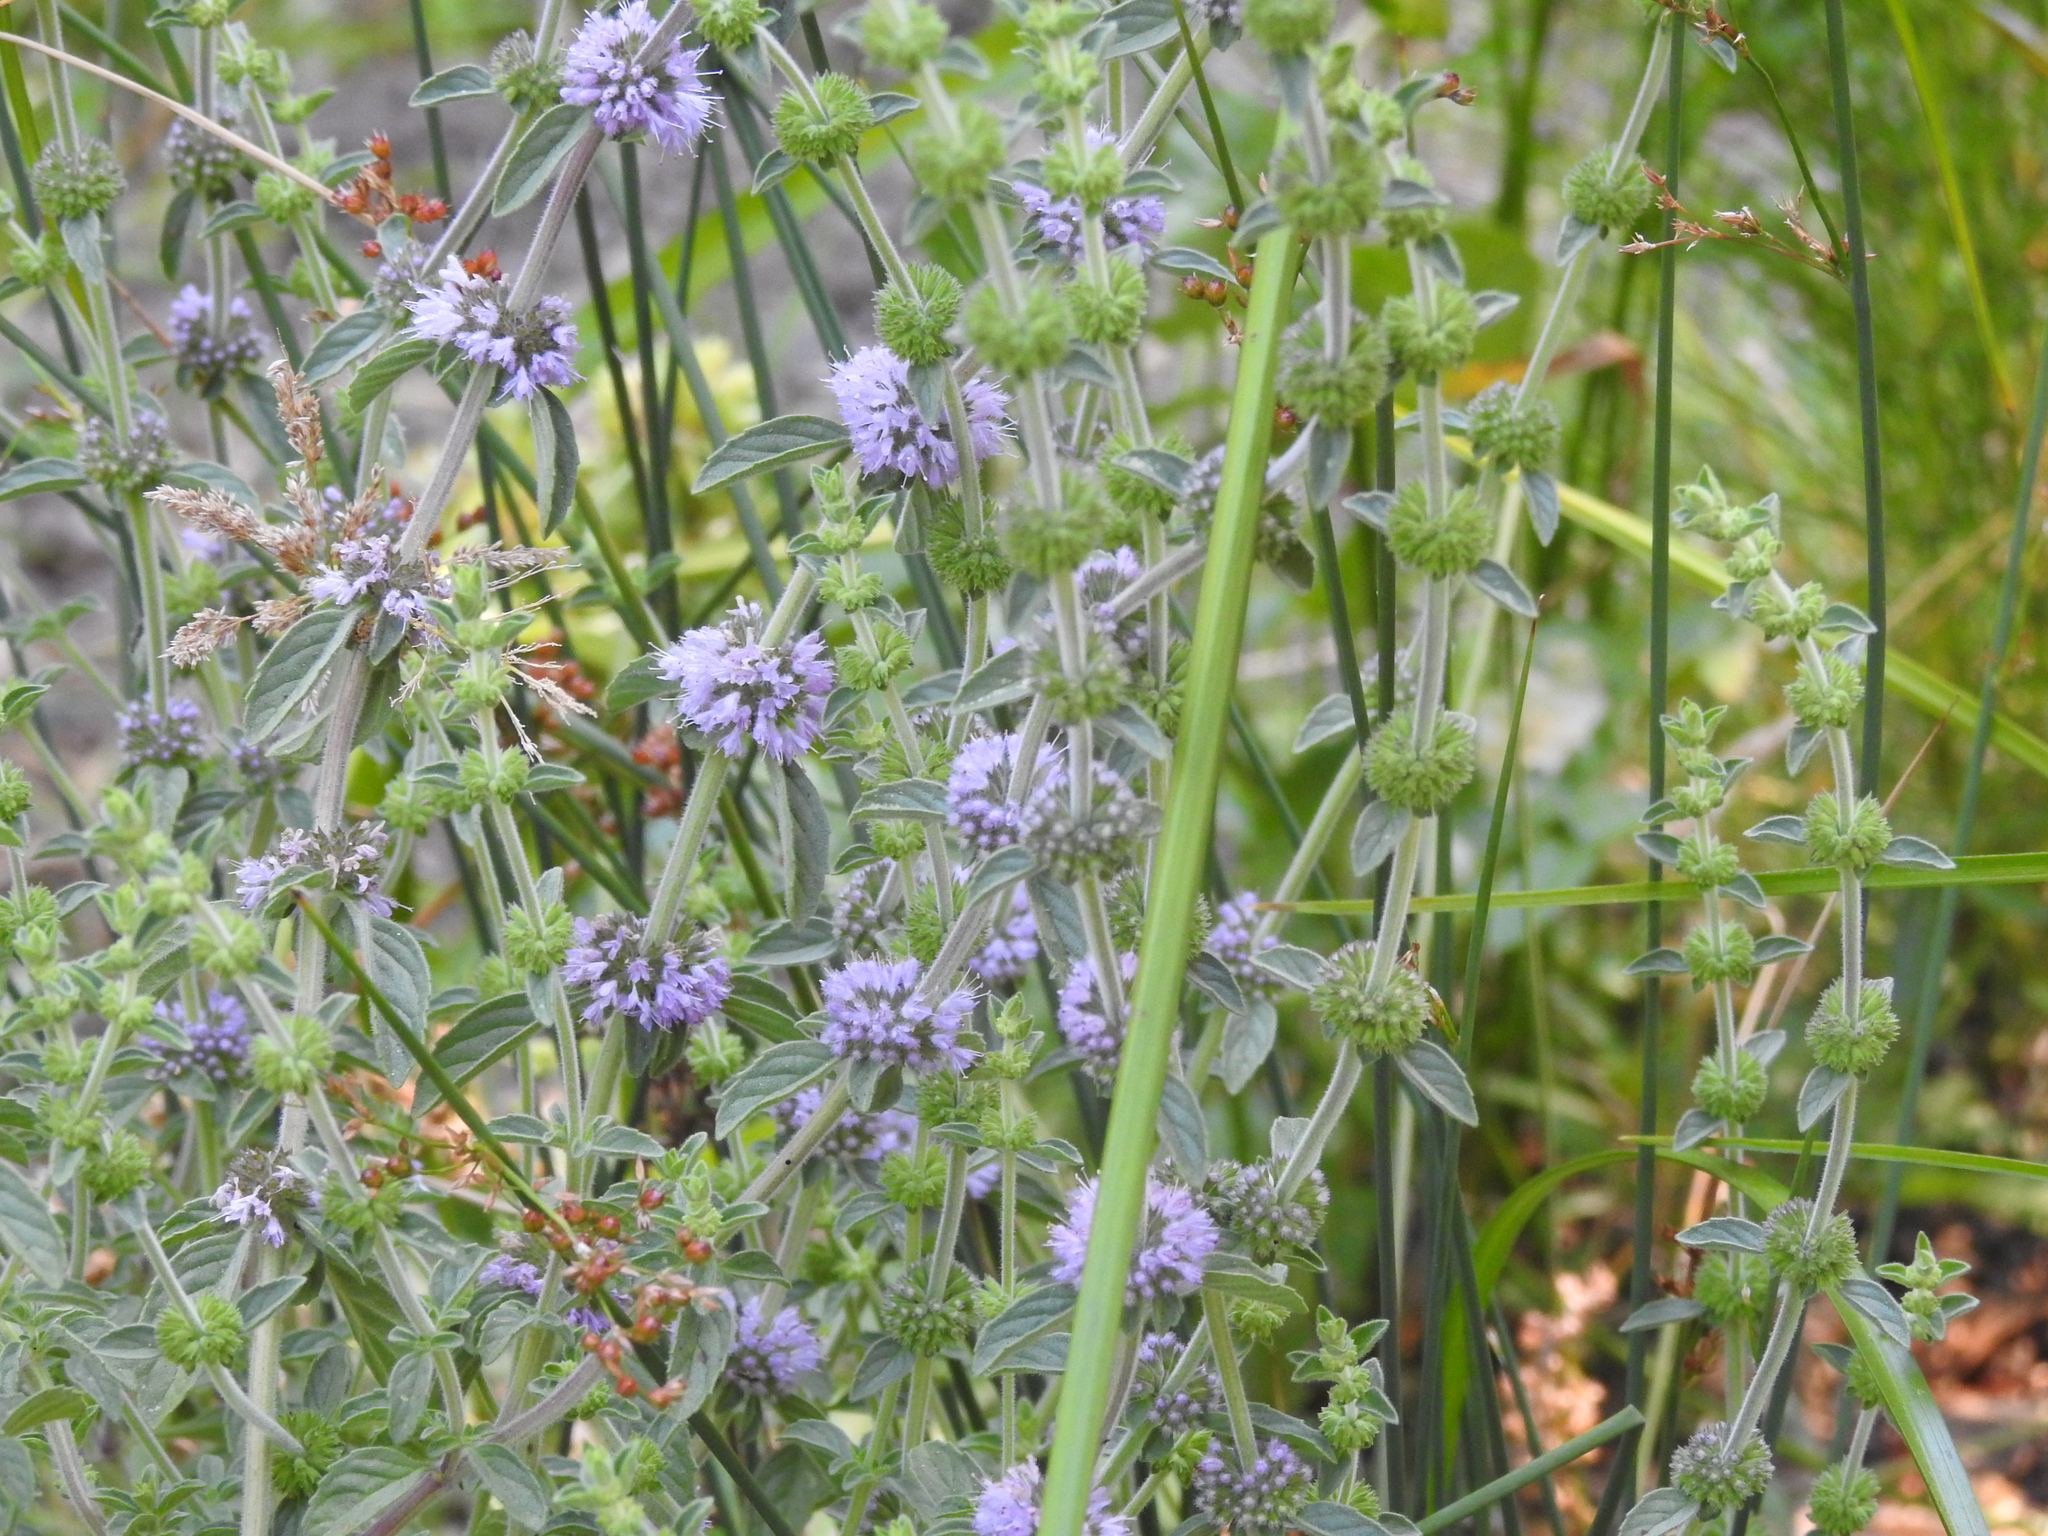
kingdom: Plantae
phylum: Tracheophyta
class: Magnoliopsida
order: Lamiales
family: Lamiaceae
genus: Mentha
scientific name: Mentha pulegium
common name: Pennyroyal
